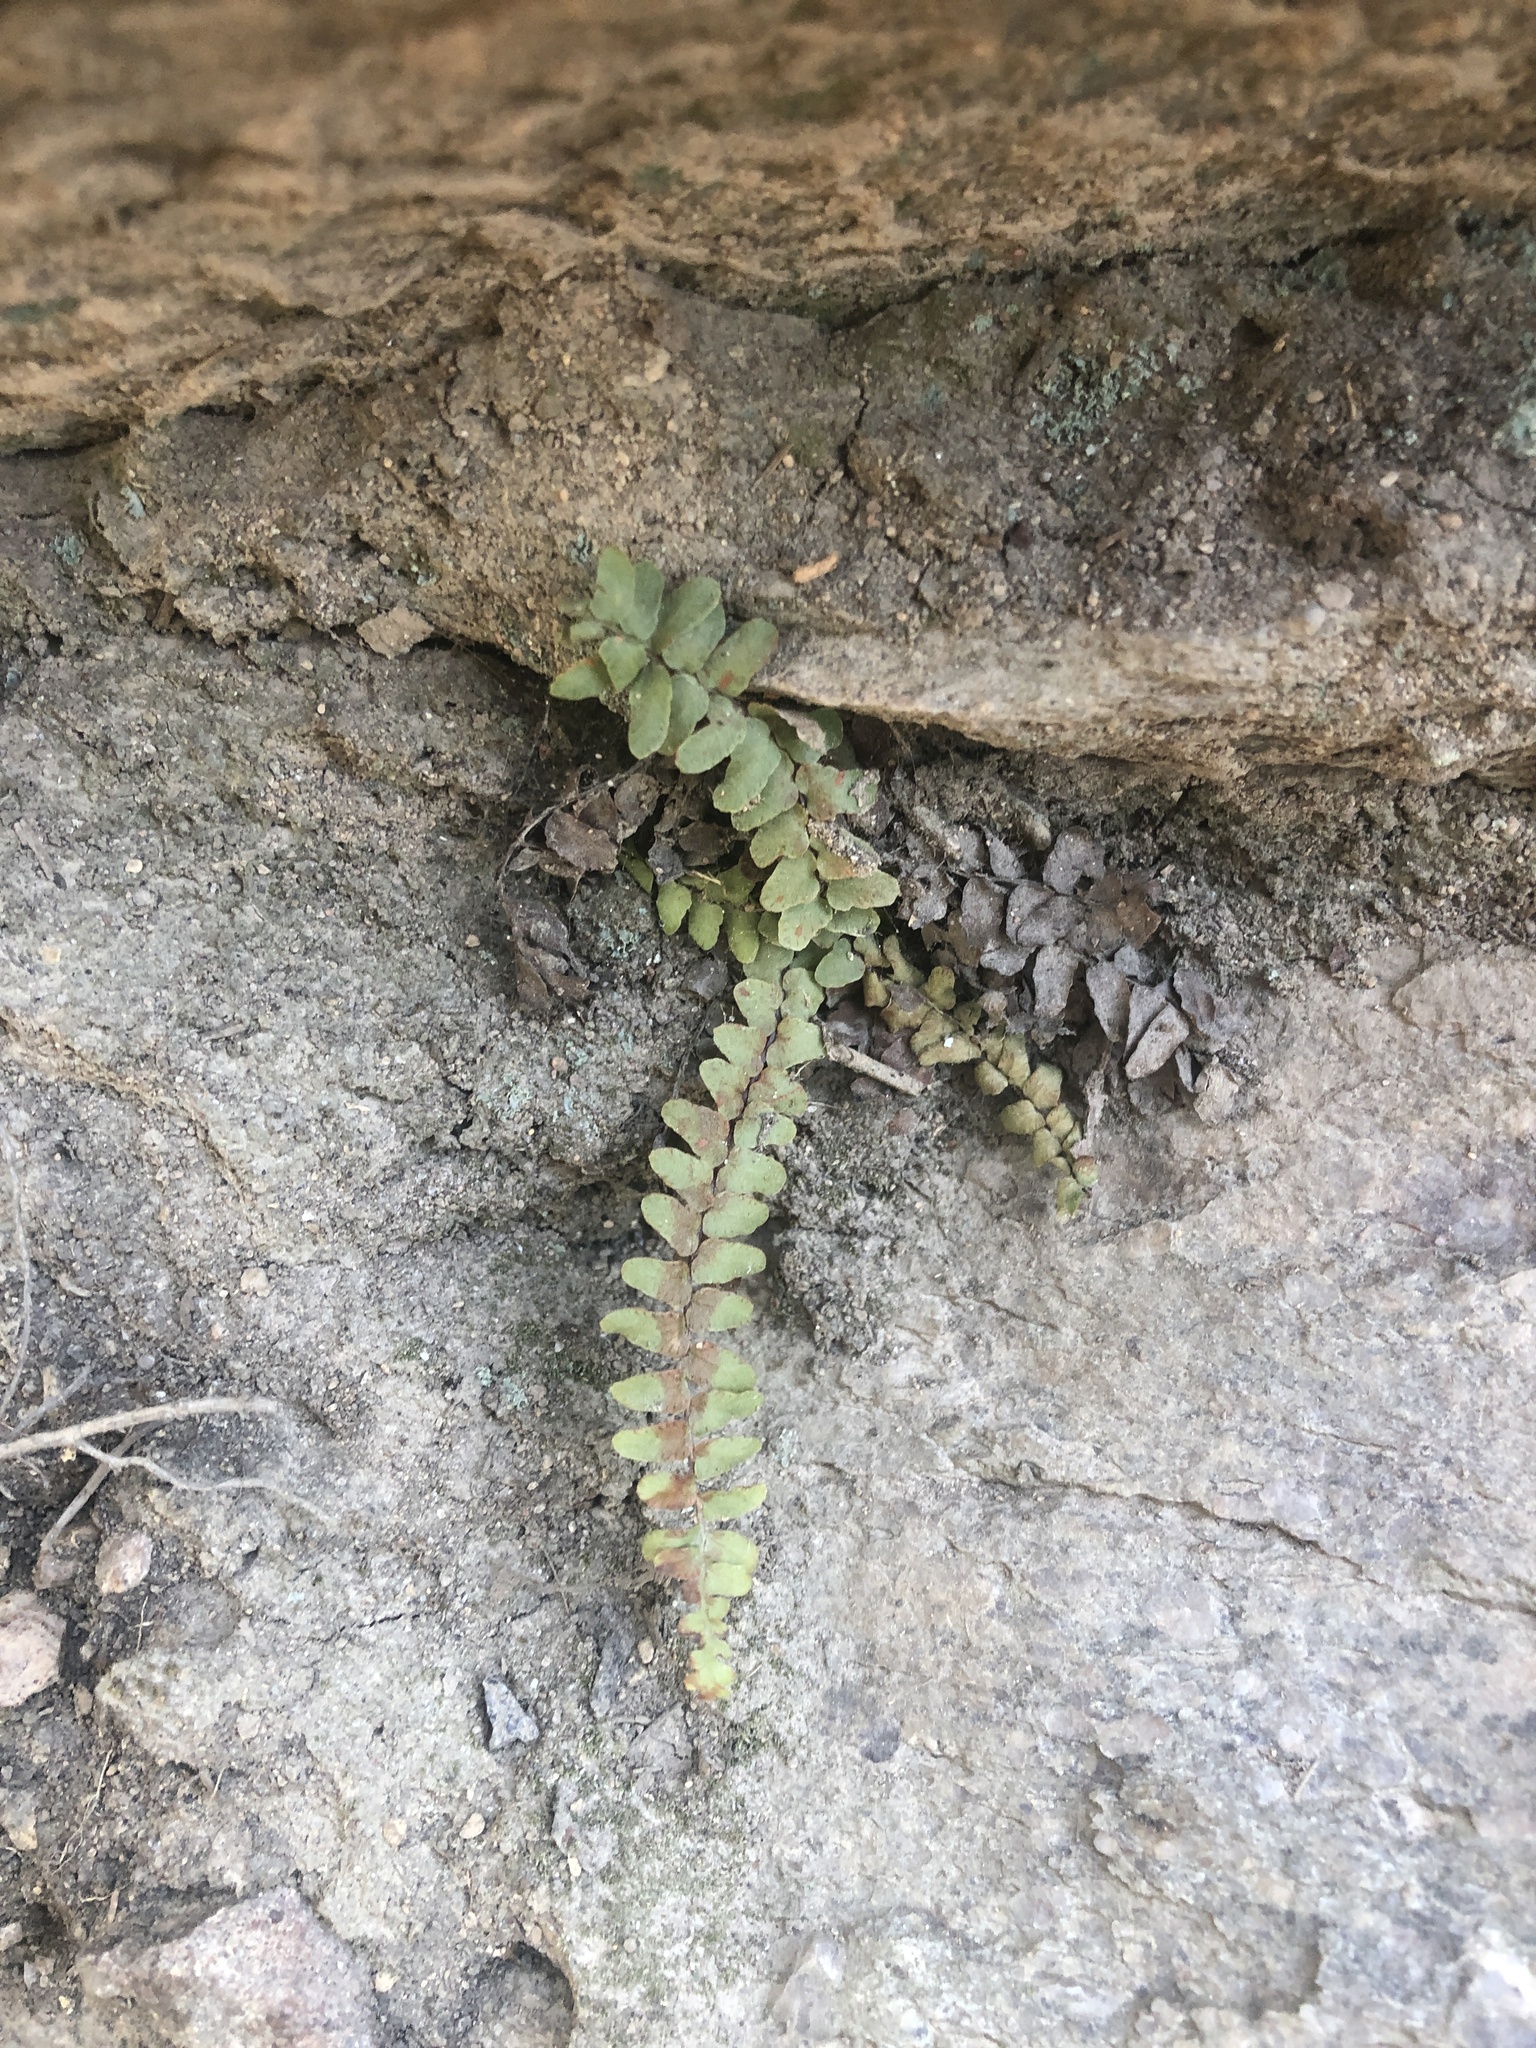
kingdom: Plantae
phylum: Tracheophyta
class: Polypodiopsida
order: Polypodiales
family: Aspleniaceae
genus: Asplenium
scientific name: Asplenium platyneuron
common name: Ebony spleenwort
